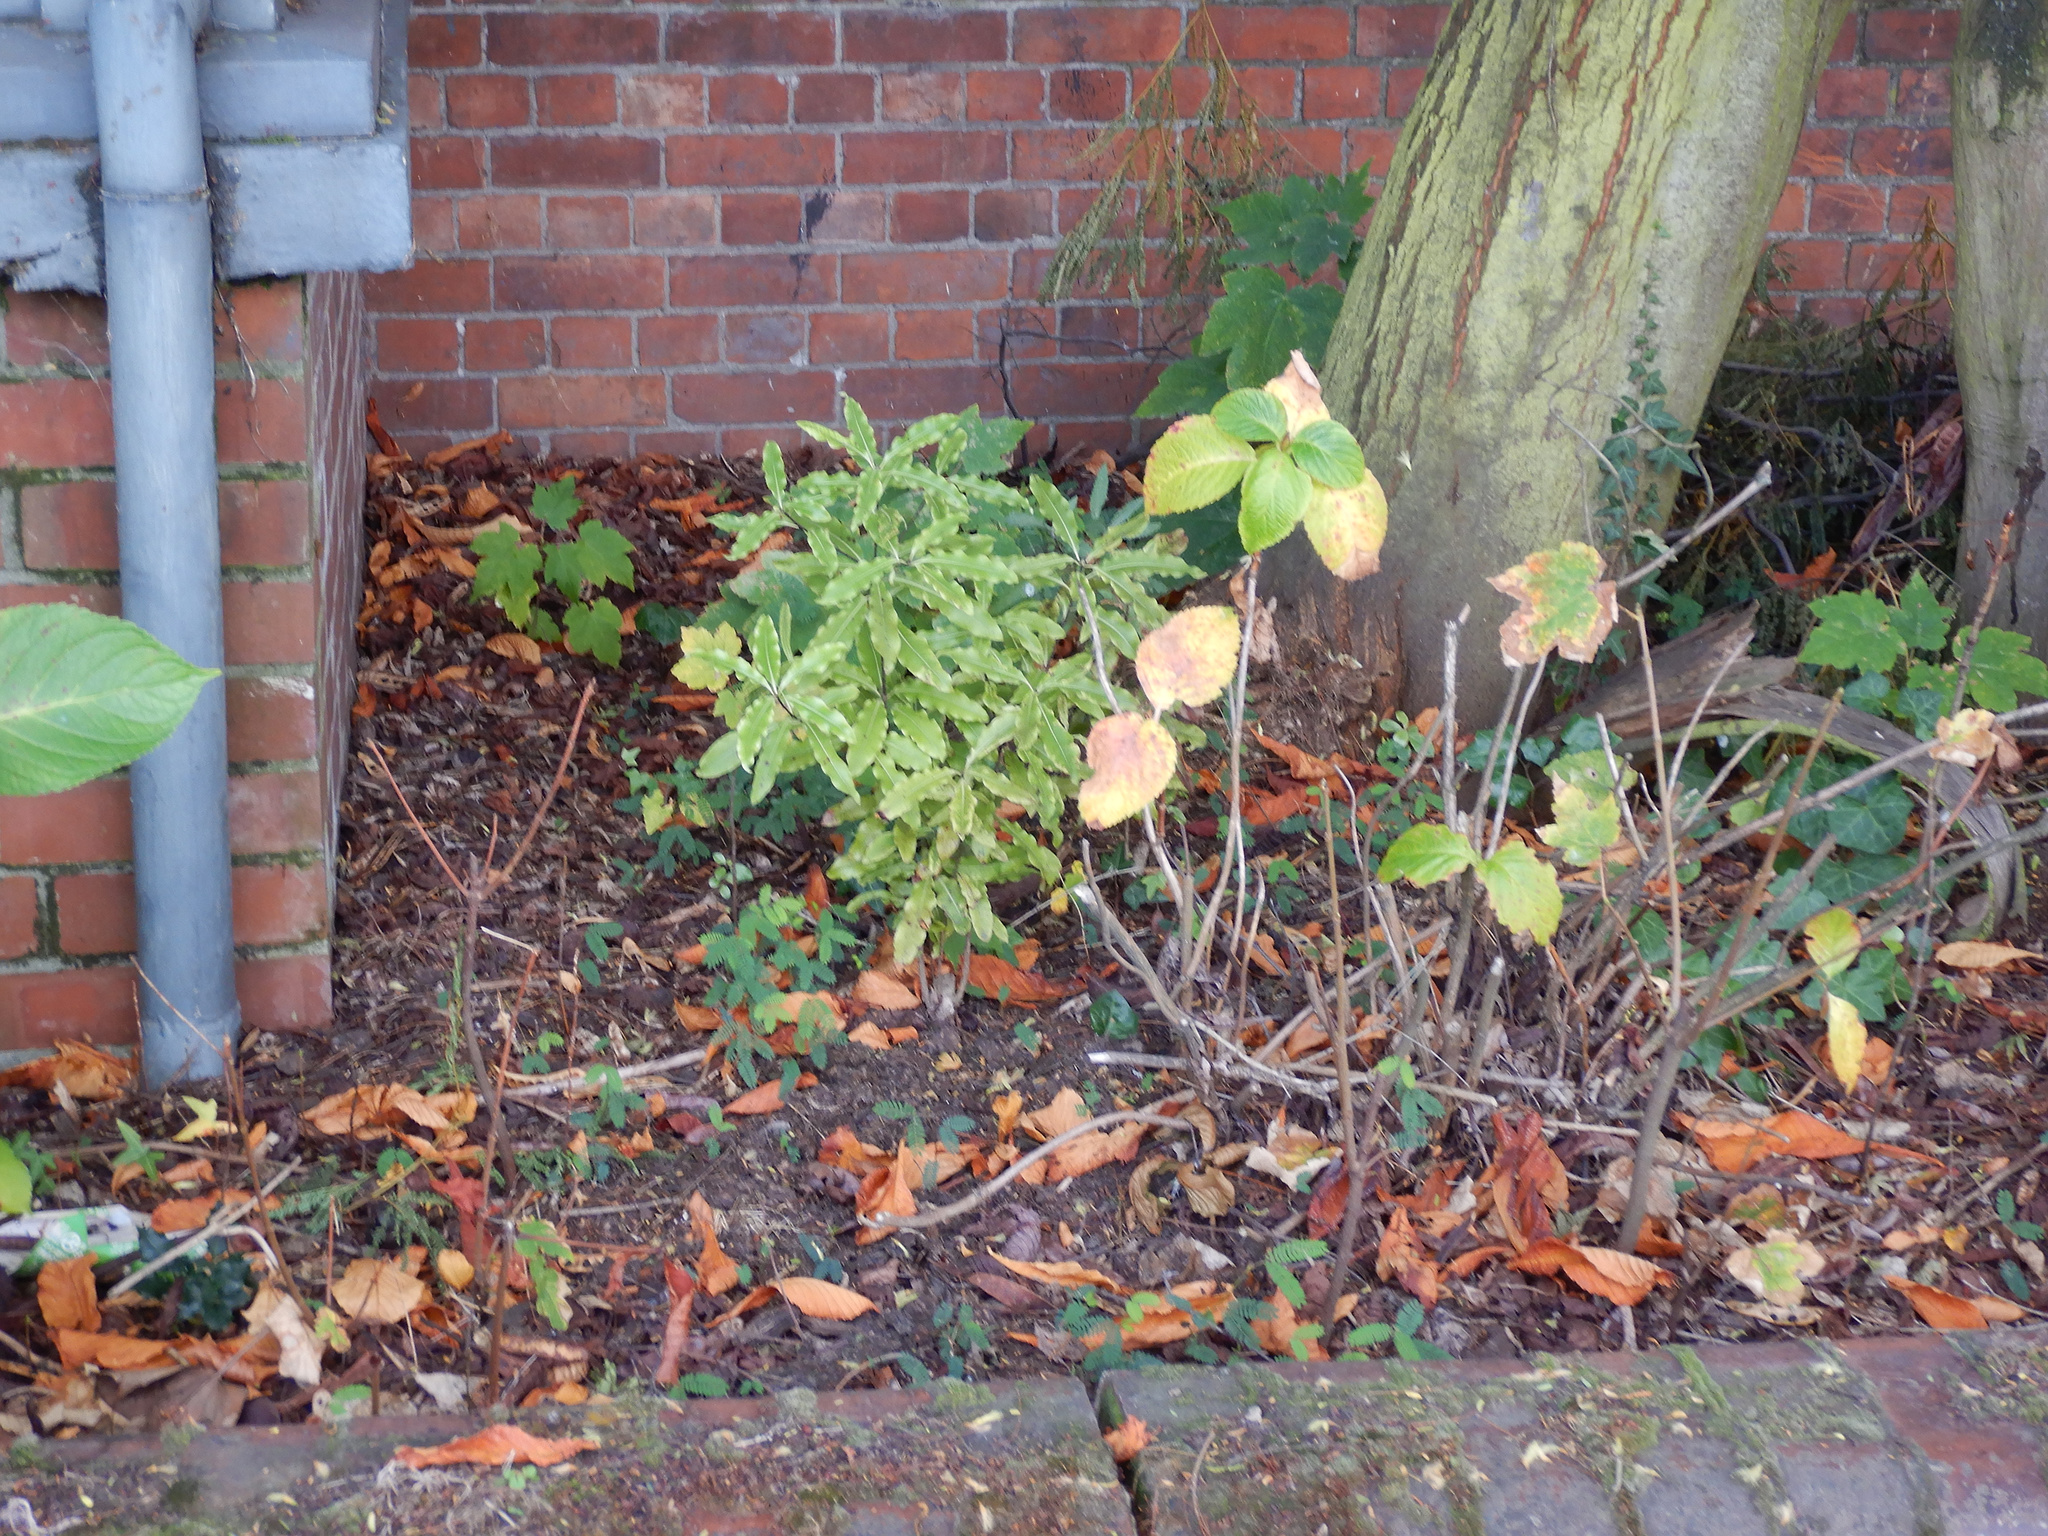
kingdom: Plantae
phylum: Tracheophyta
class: Magnoliopsida
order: Apiales
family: Pittosporaceae
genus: Pittosporum
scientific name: Pittosporum eugenioides
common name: Lemonwood
